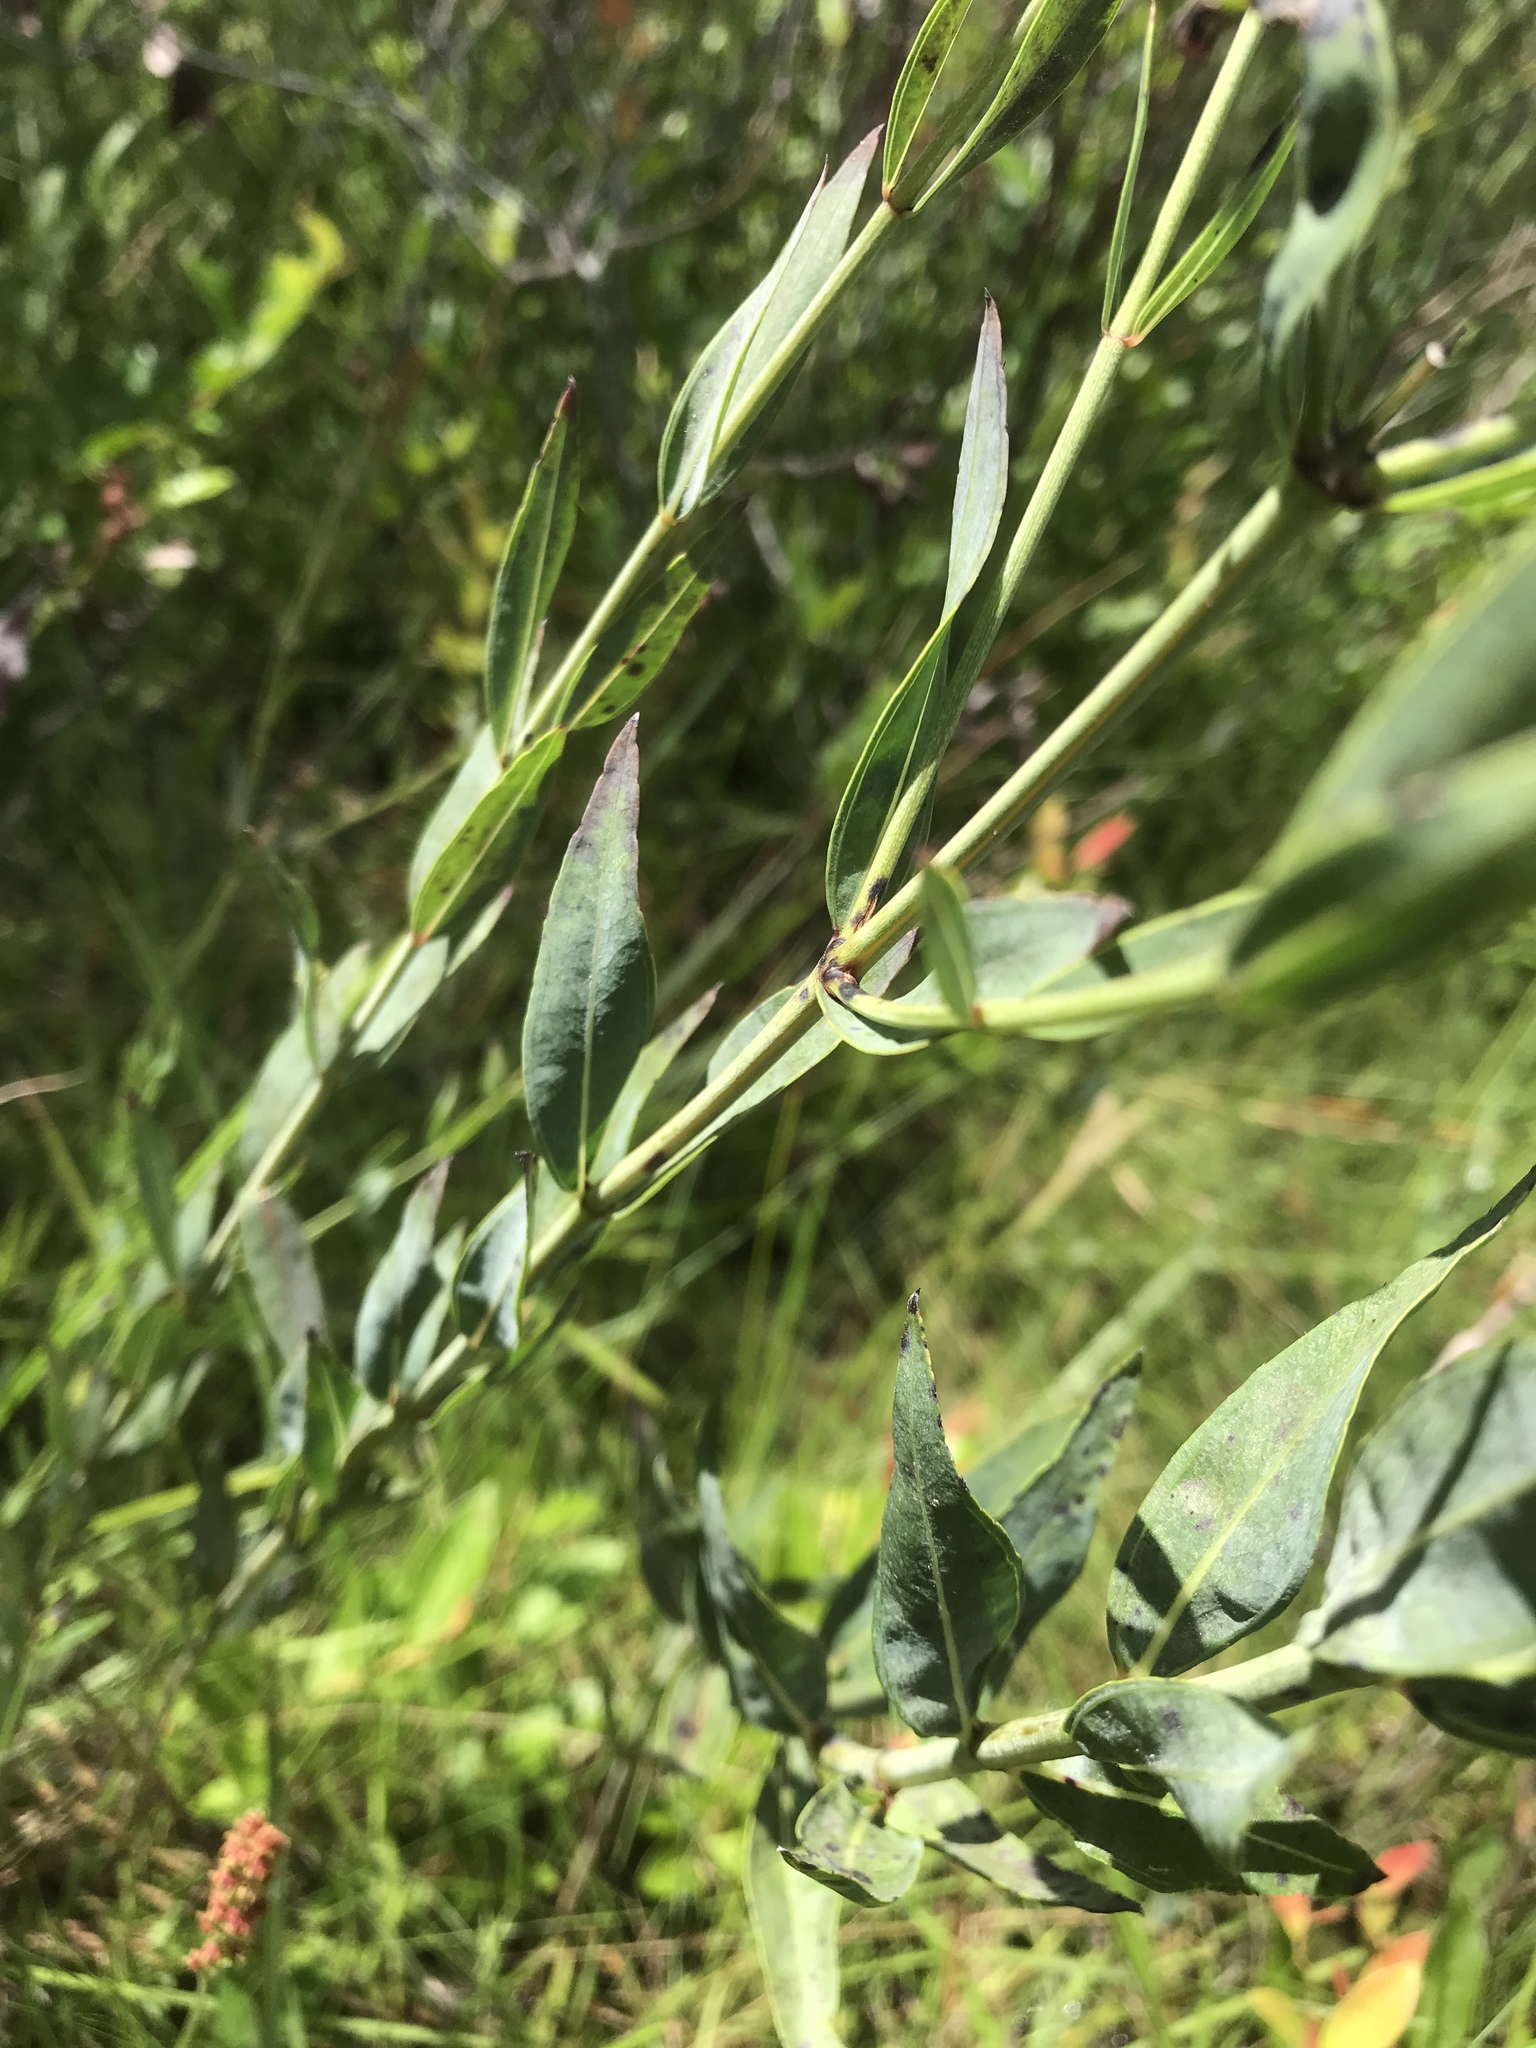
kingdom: Plantae
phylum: Tracheophyta
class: Magnoliopsida
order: Myrtales
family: Melastomataceae
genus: Rhexia
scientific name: Rhexia alifanus
